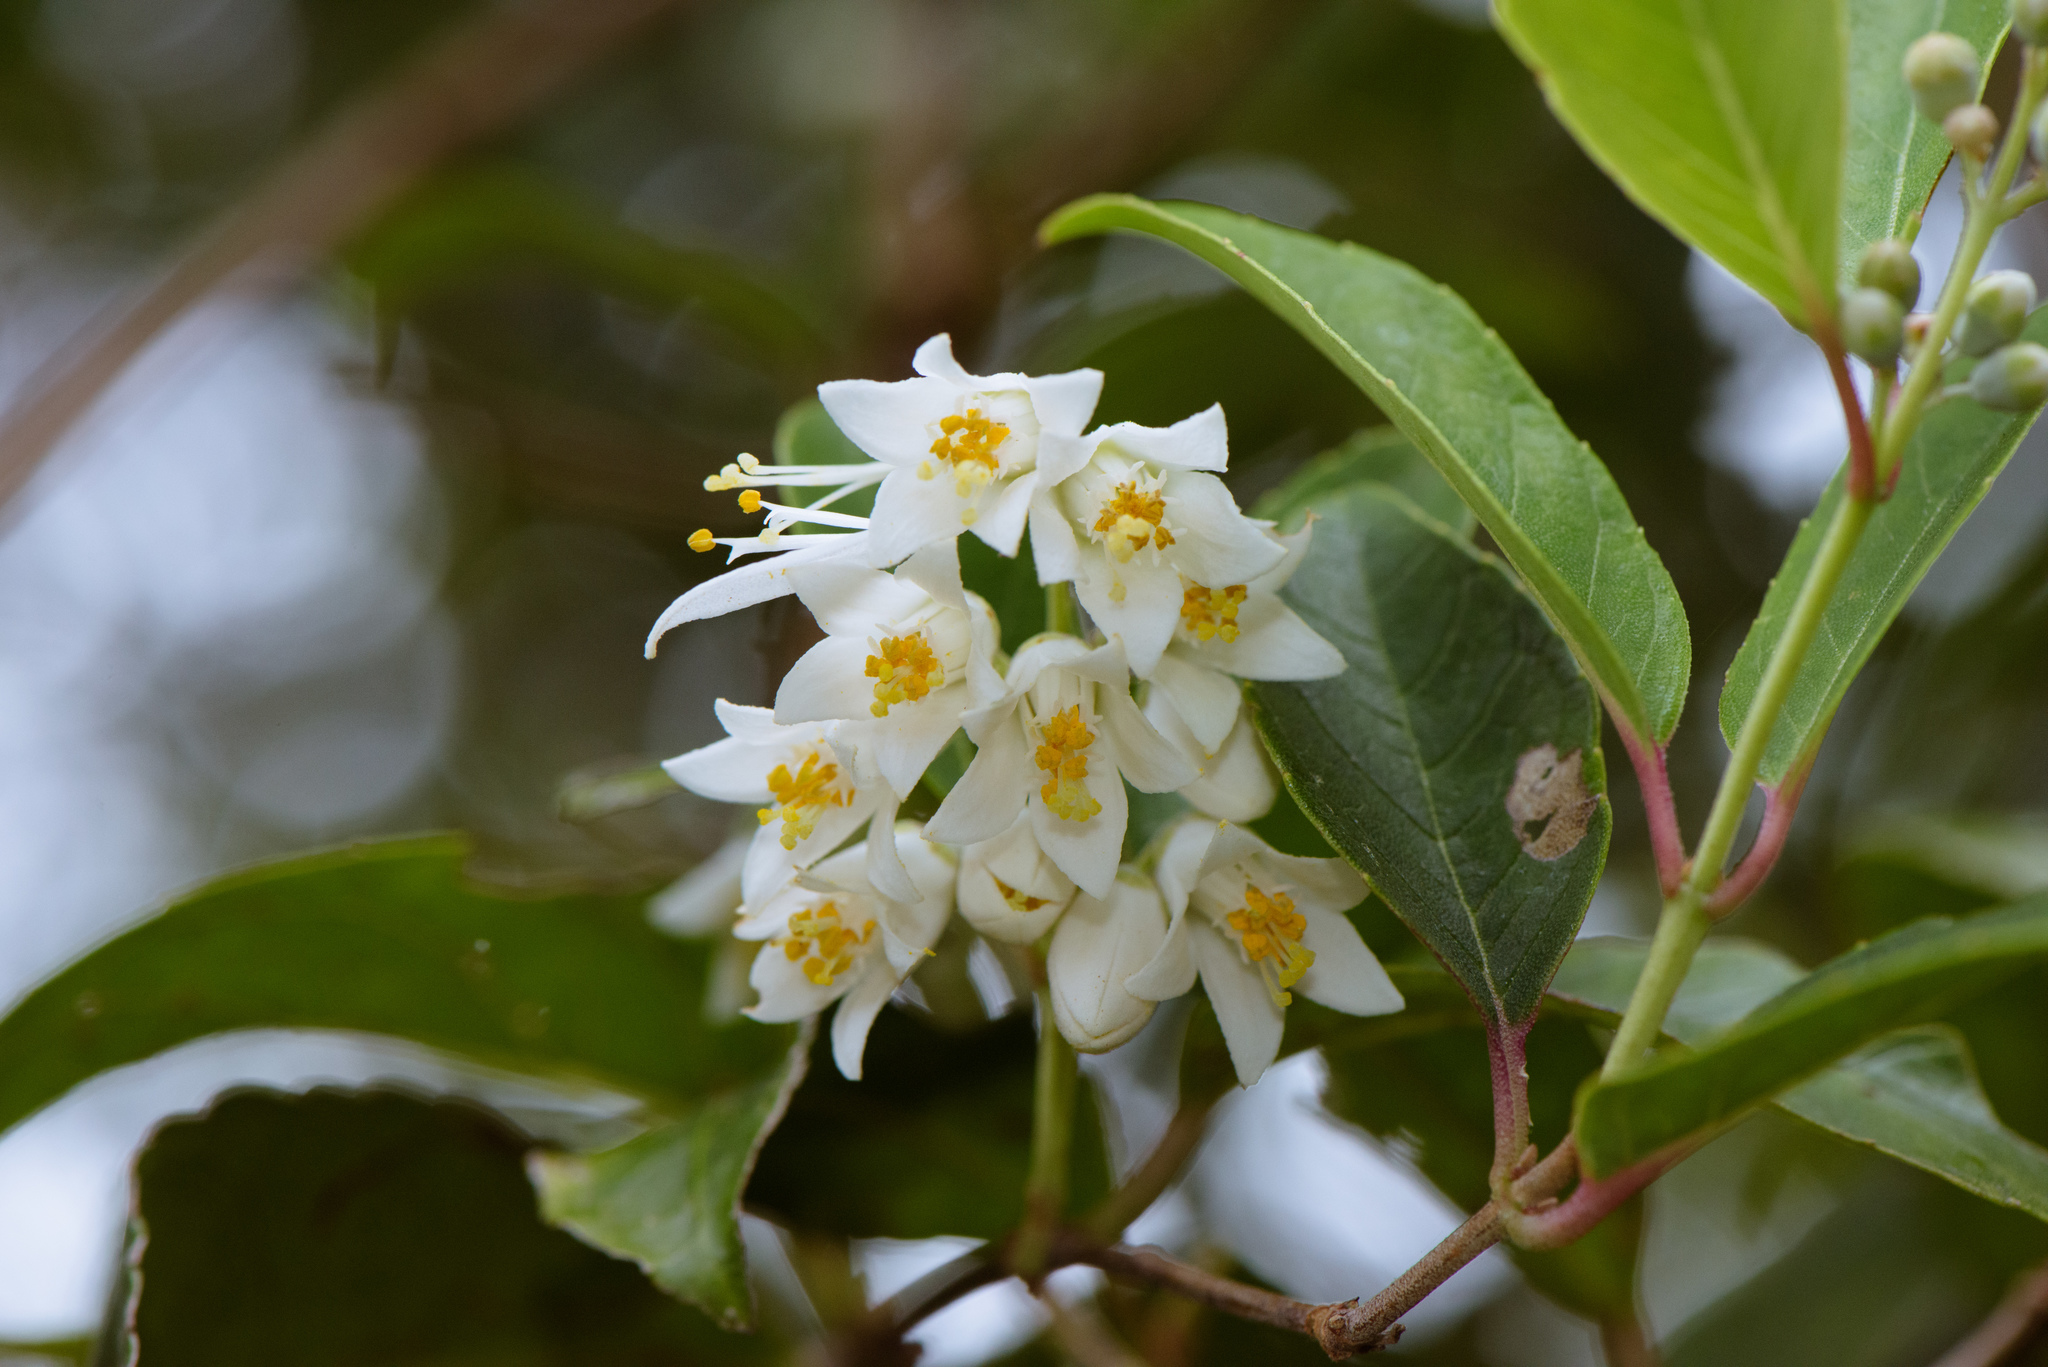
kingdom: Plantae
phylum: Tracheophyta
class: Magnoliopsida
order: Cornales
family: Hydrangeaceae
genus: Deutzia
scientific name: Deutzia pulchra
